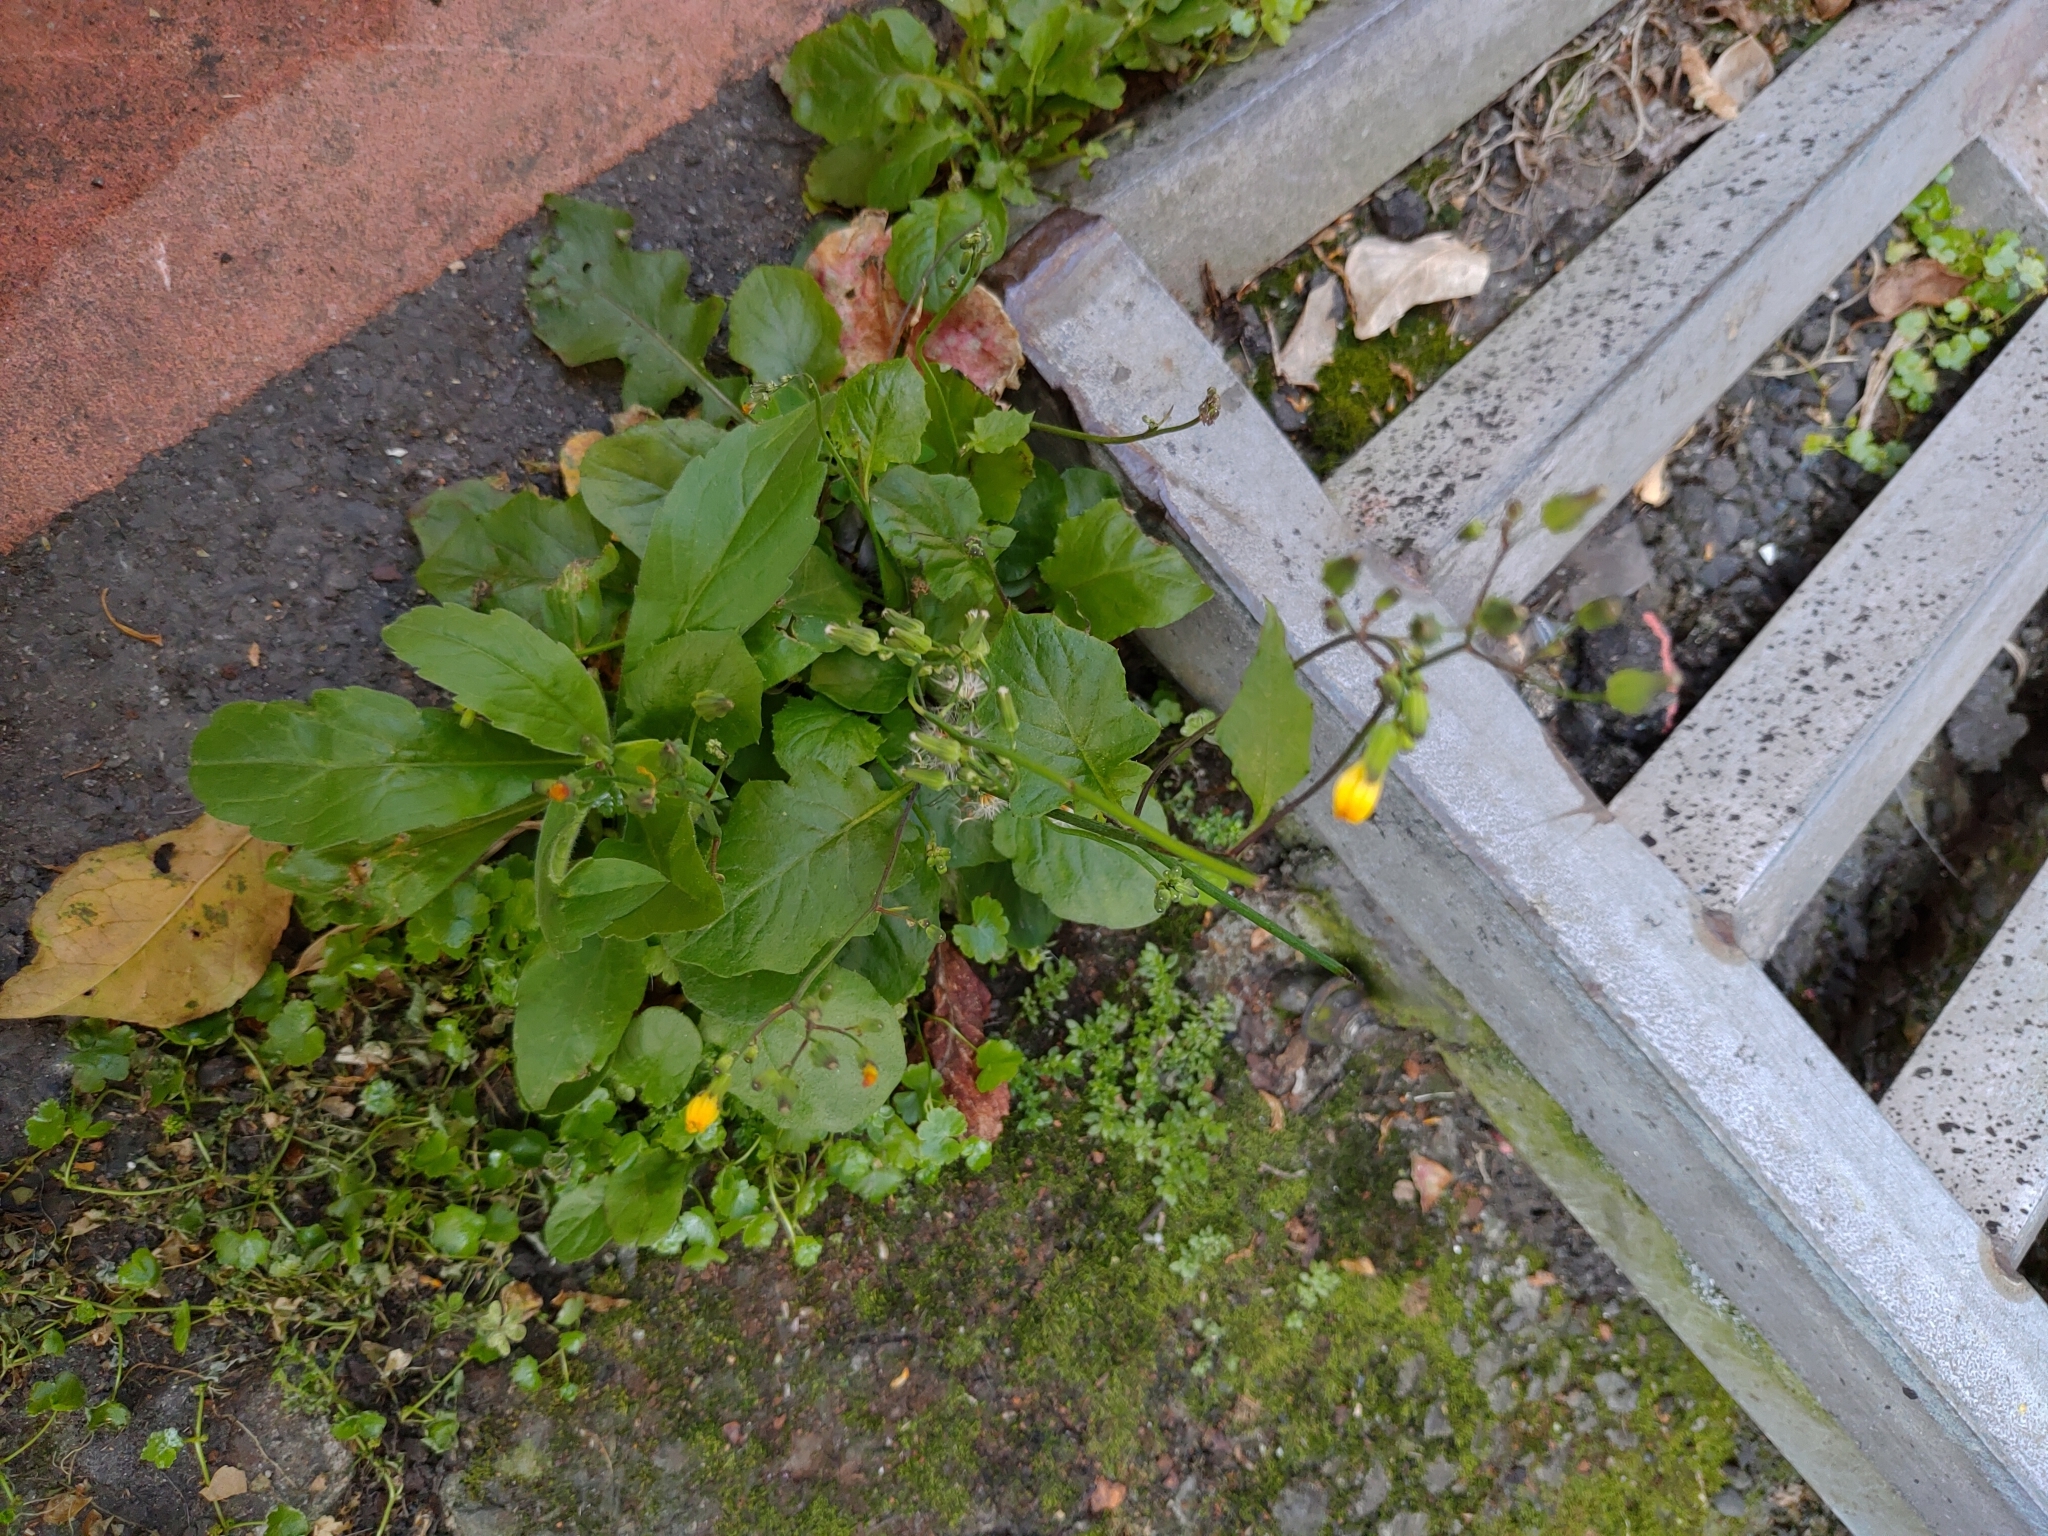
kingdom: Plantae
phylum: Tracheophyta
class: Magnoliopsida
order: Asterales
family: Asteraceae
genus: Youngia
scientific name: Youngia japonica
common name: Oriental false hawksbeard
